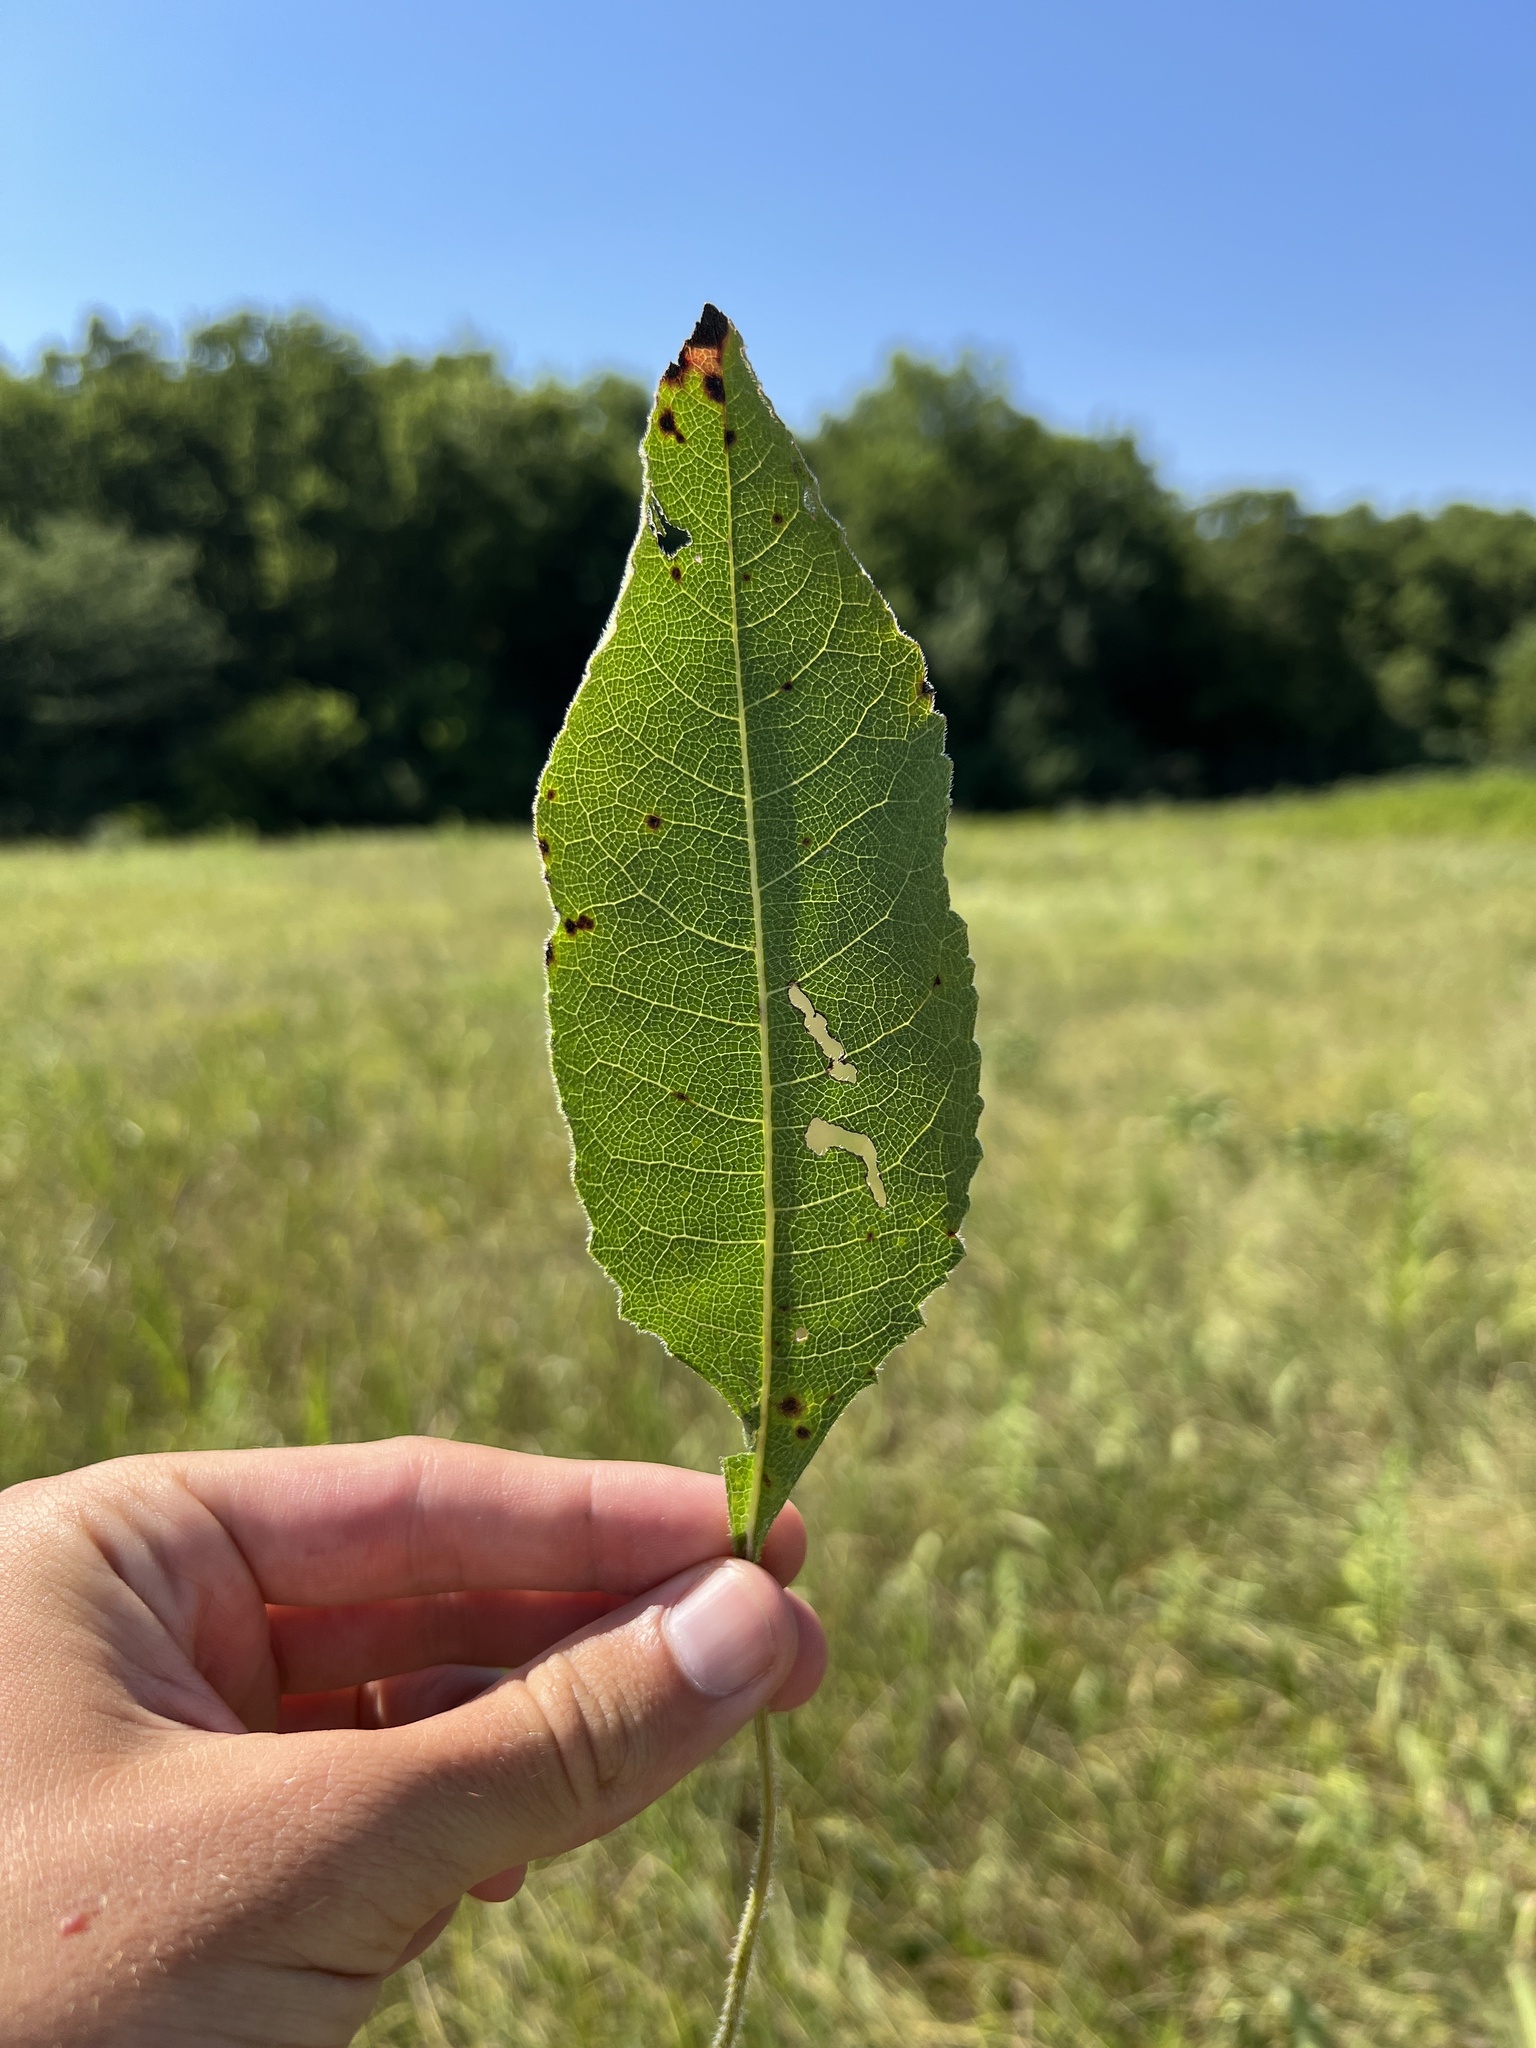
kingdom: Plantae
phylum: Tracheophyta
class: Magnoliopsida
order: Asterales
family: Asteraceae
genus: Parthenium
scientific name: Parthenium hispidum
